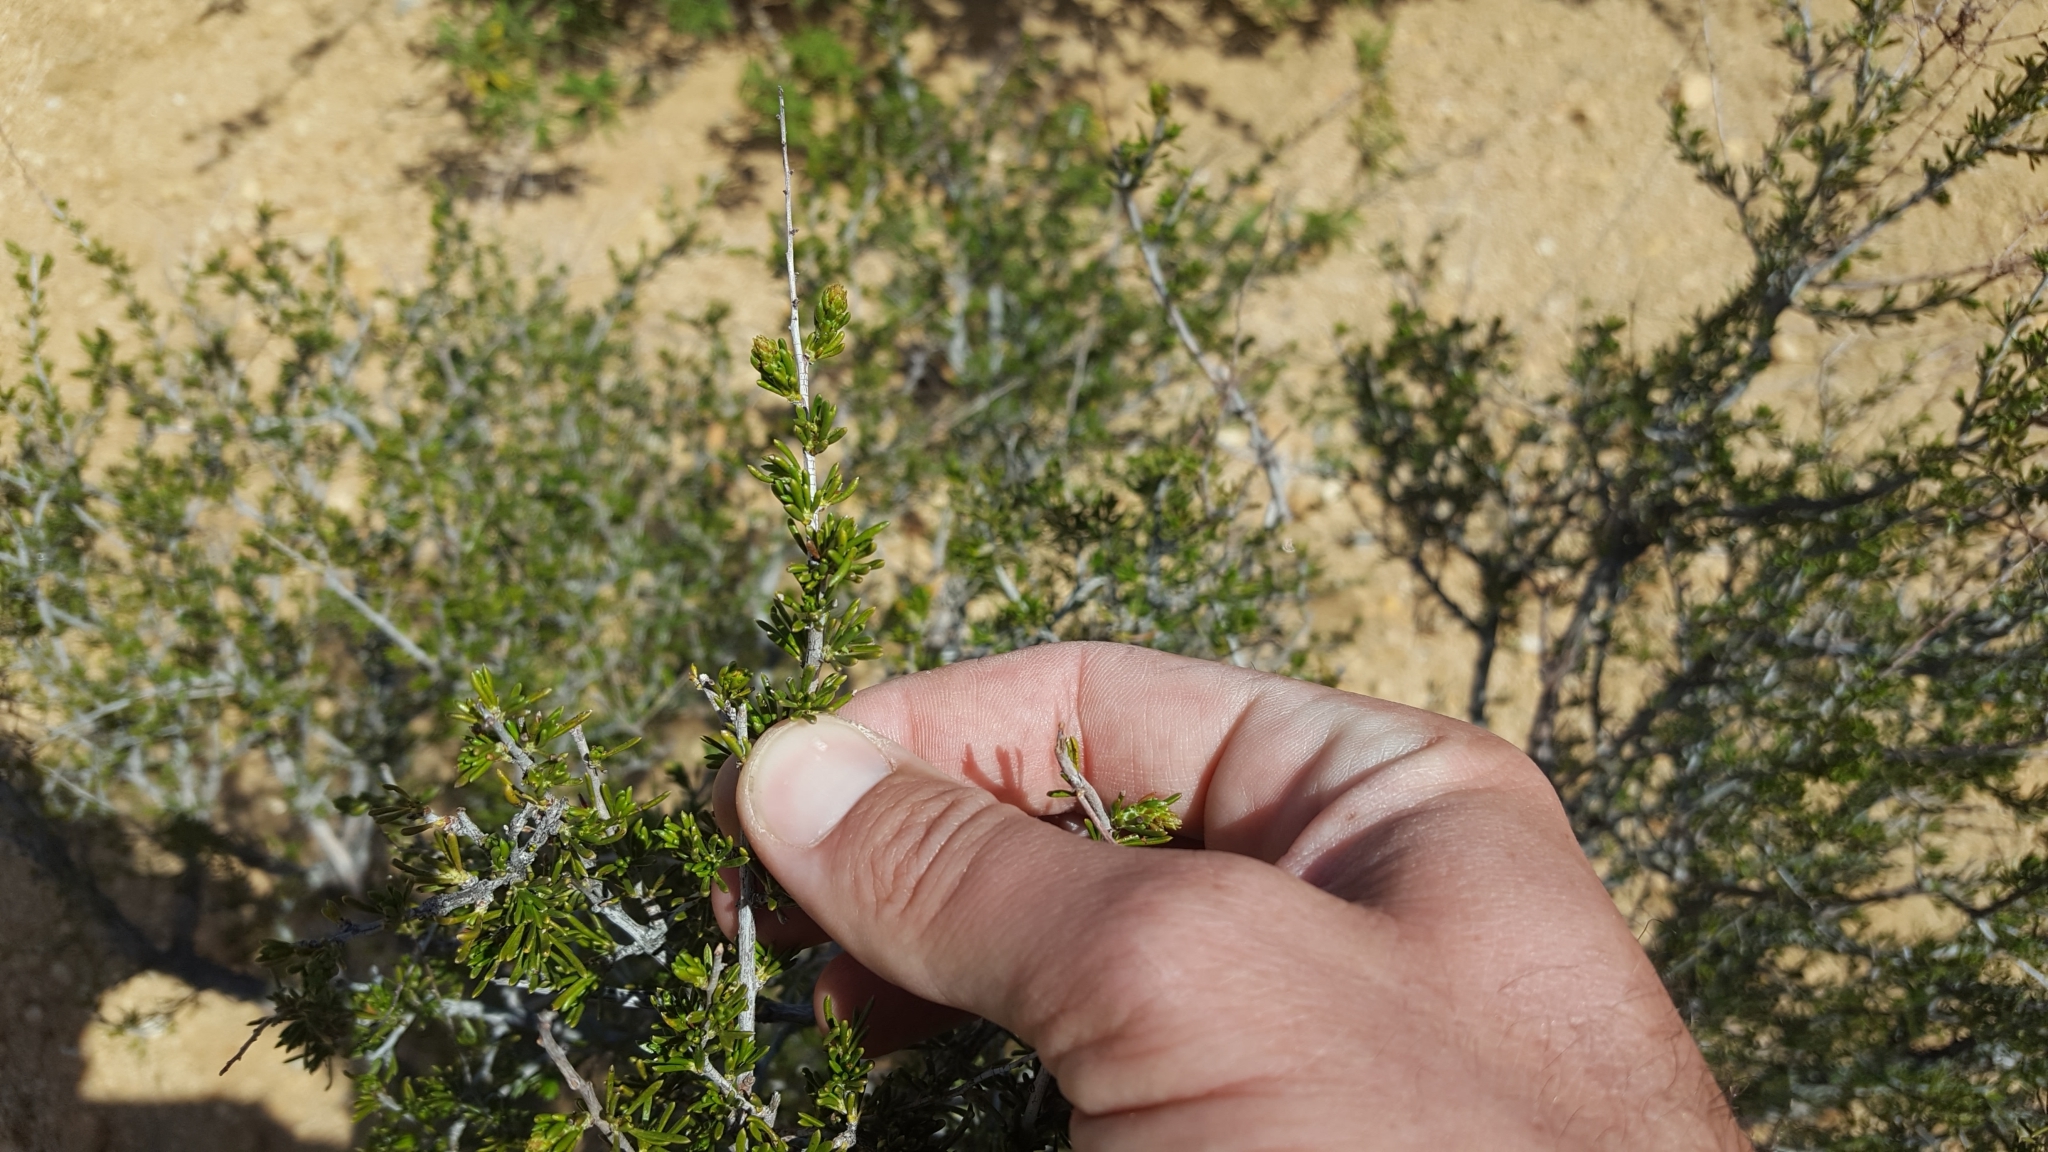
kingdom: Plantae
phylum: Tracheophyta
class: Magnoliopsida
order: Rosales
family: Rosaceae
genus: Adenostoma
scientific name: Adenostoma fasciculatum
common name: Chamise
